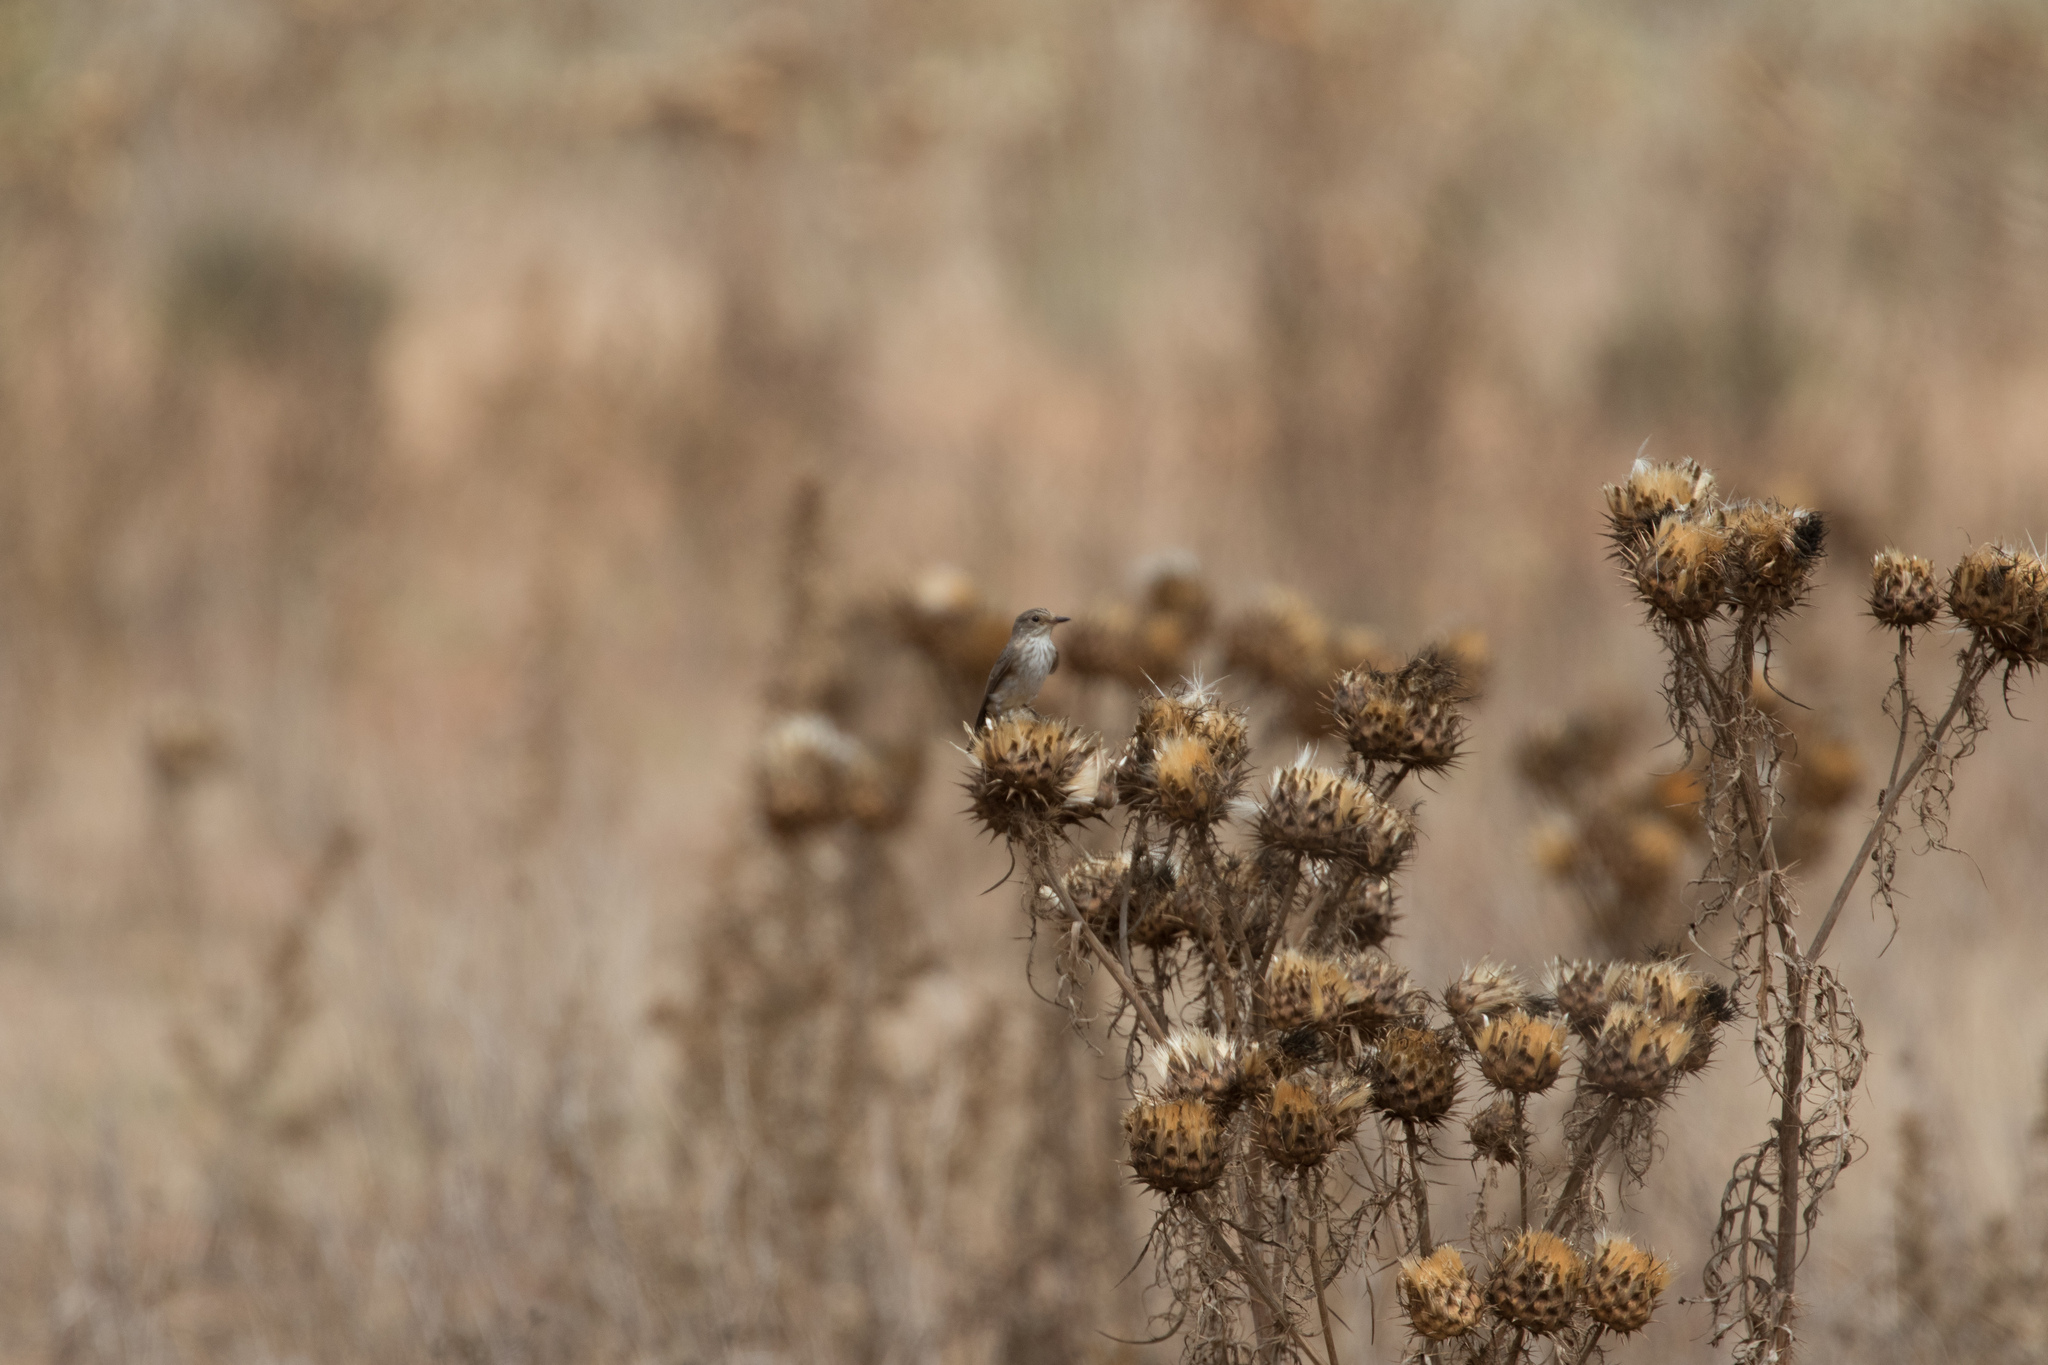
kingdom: Animalia
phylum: Chordata
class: Aves
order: Passeriformes
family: Muscicapidae
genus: Muscicapa
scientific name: Muscicapa striata
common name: Spotted flycatcher
